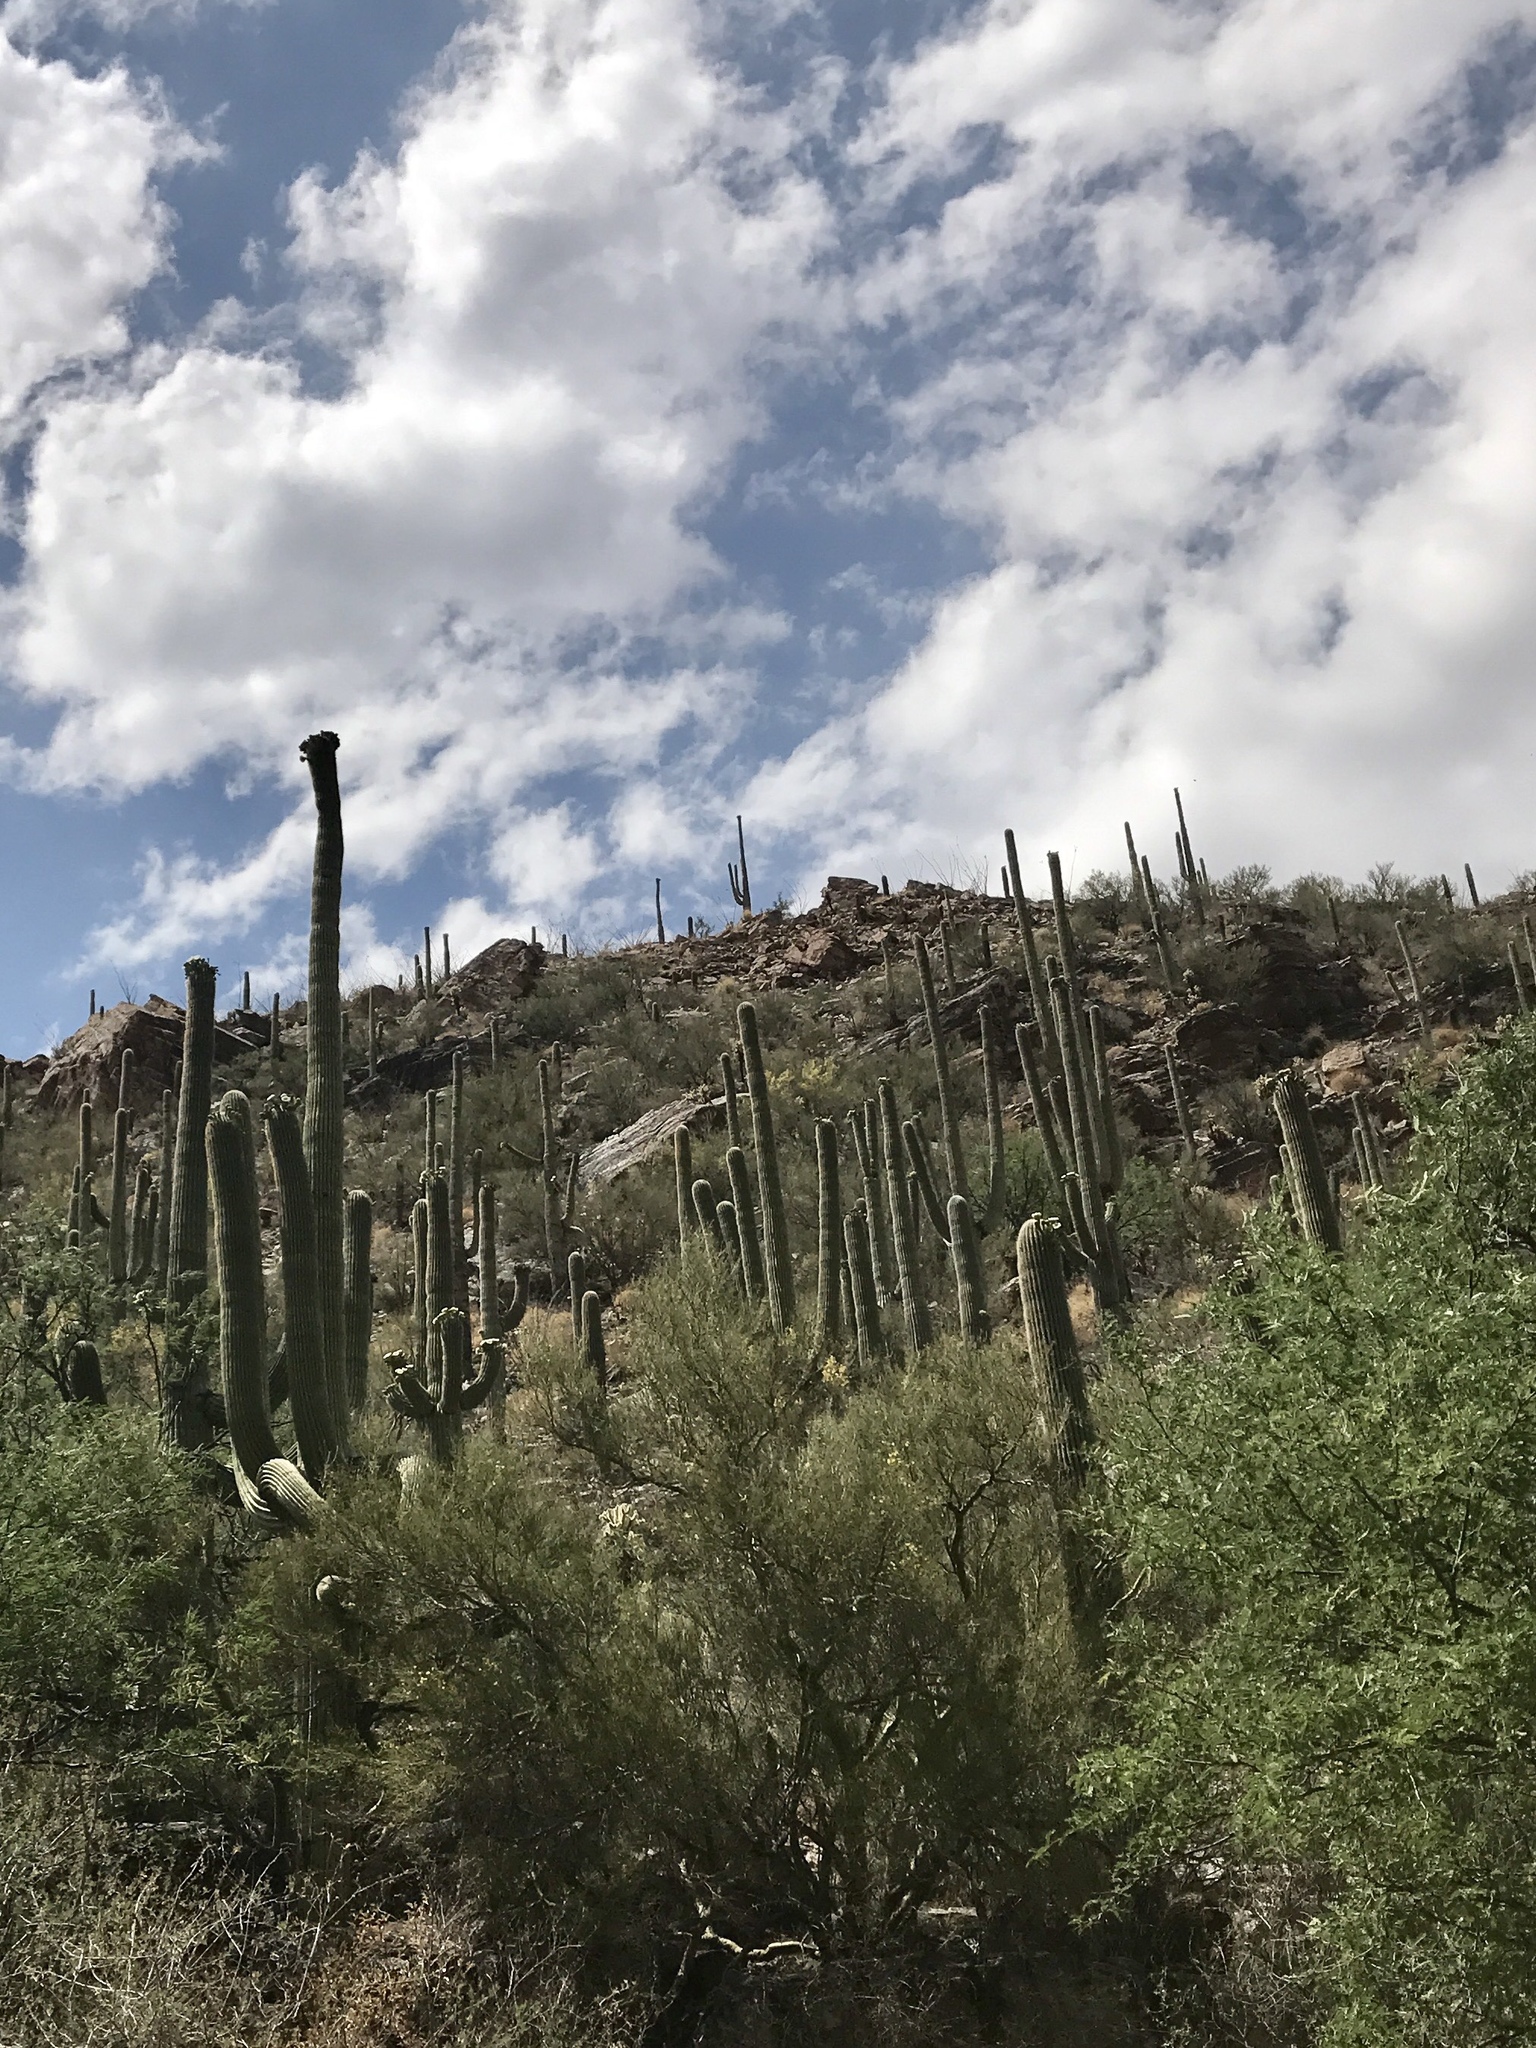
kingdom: Plantae
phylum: Tracheophyta
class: Magnoliopsida
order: Caryophyllales
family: Cactaceae
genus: Carnegiea
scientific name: Carnegiea gigantea
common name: Saguaro
